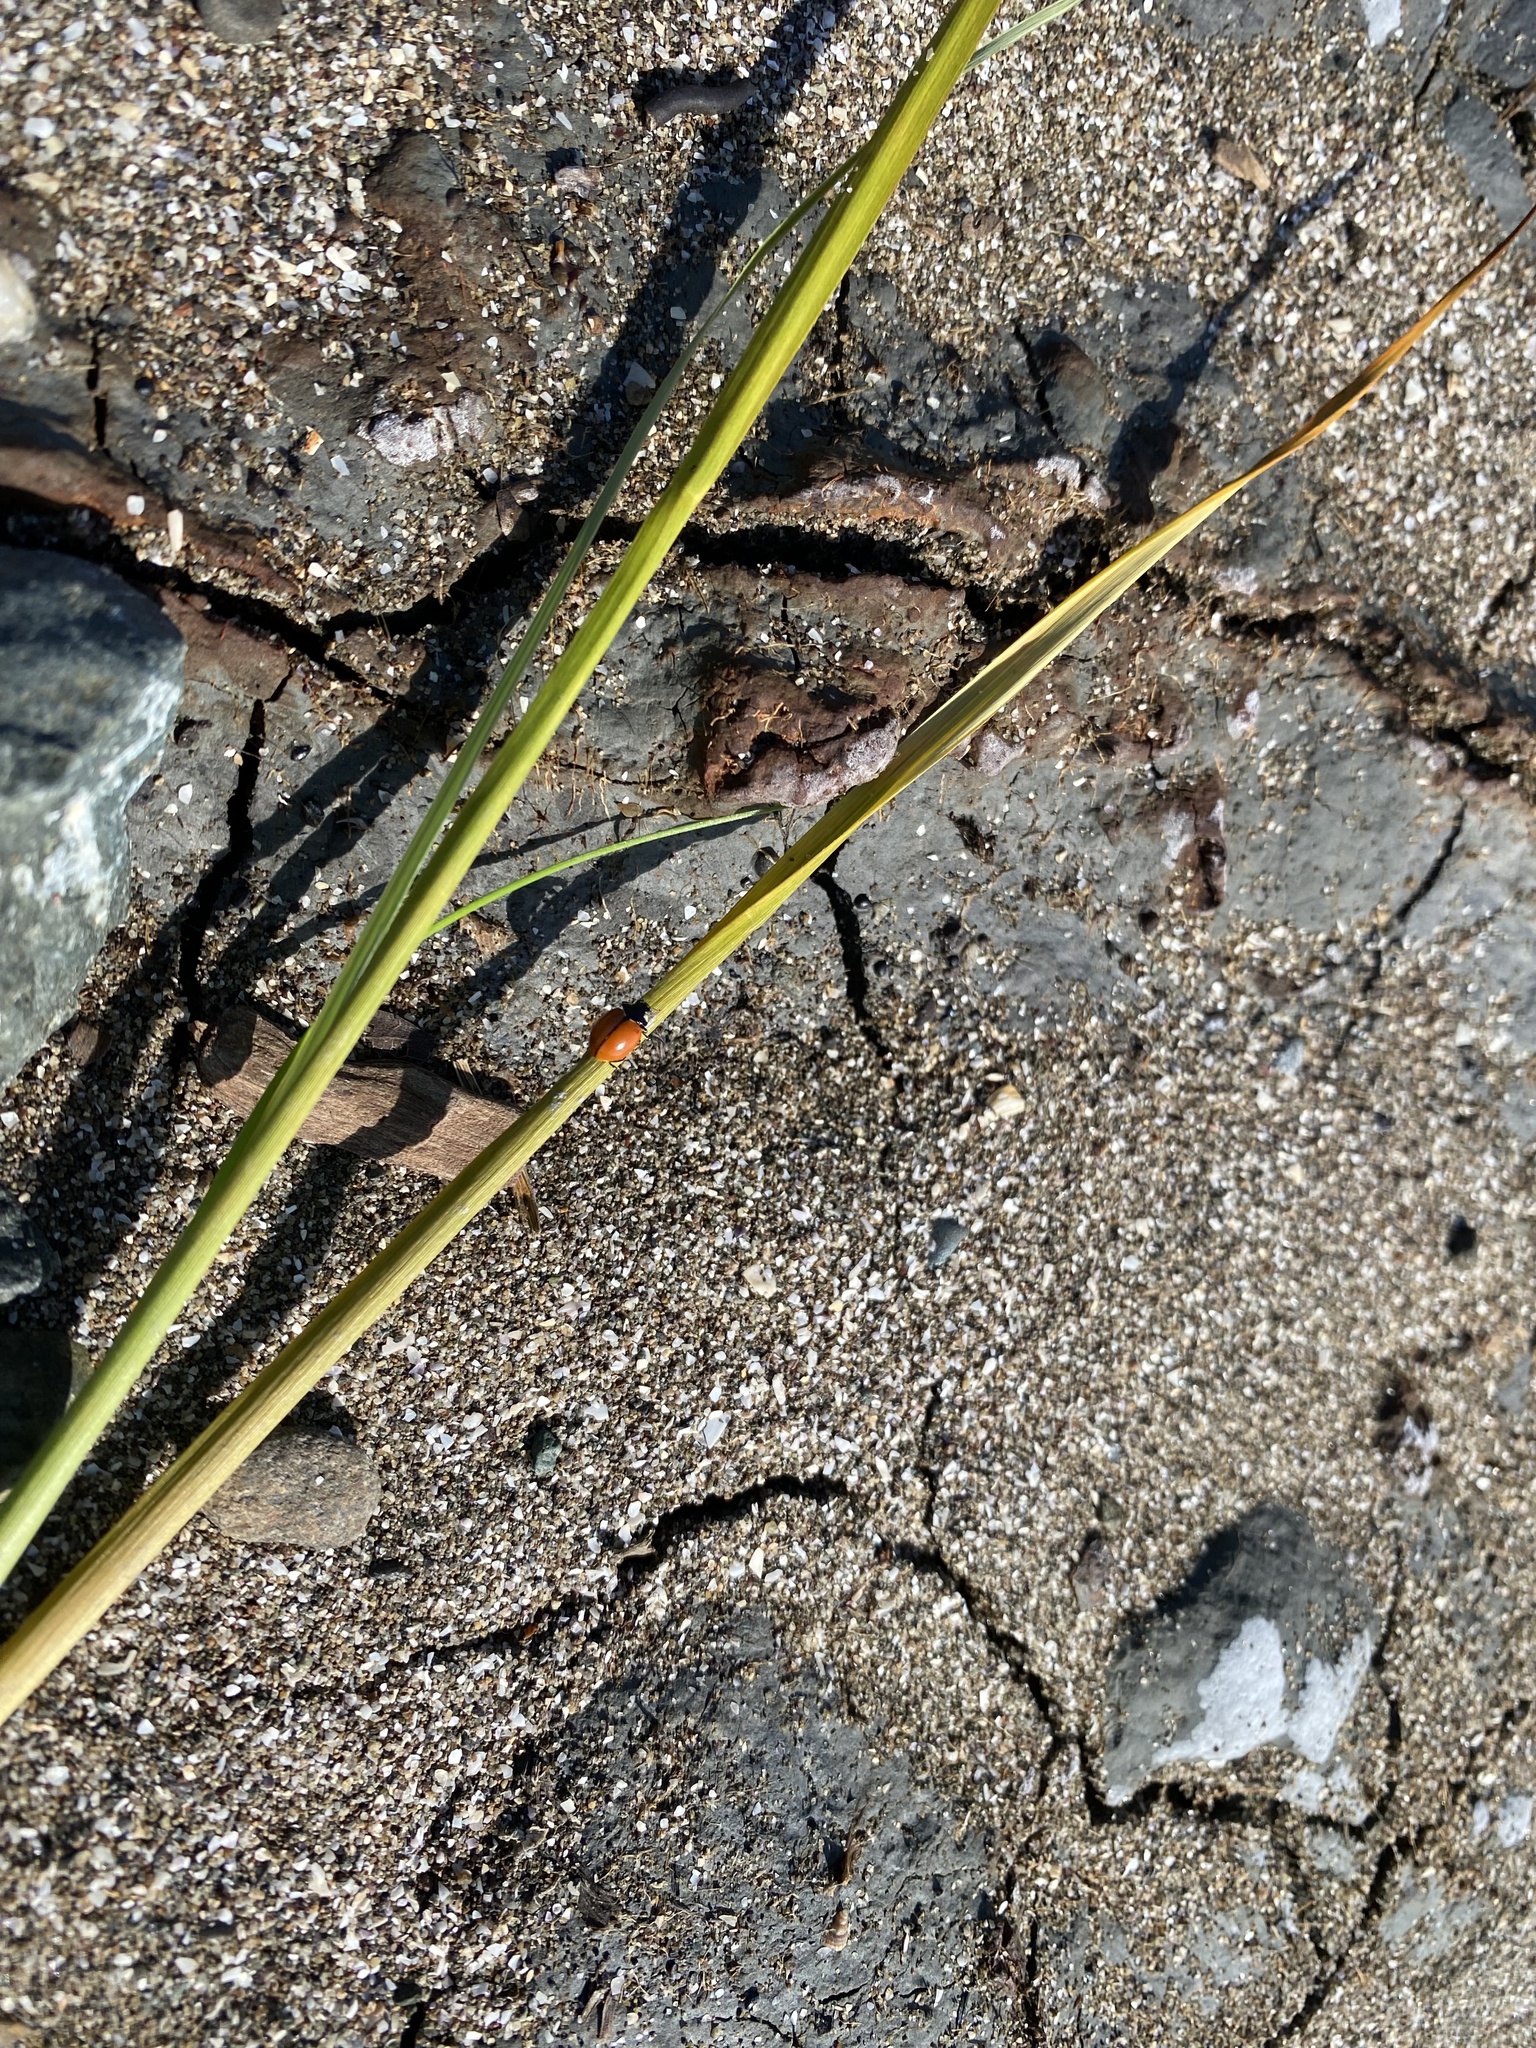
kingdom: Animalia
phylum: Arthropoda
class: Insecta
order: Coleoptera
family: Coccinellidae
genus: Coccinella
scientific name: Coccinella californica
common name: Lady beetle
